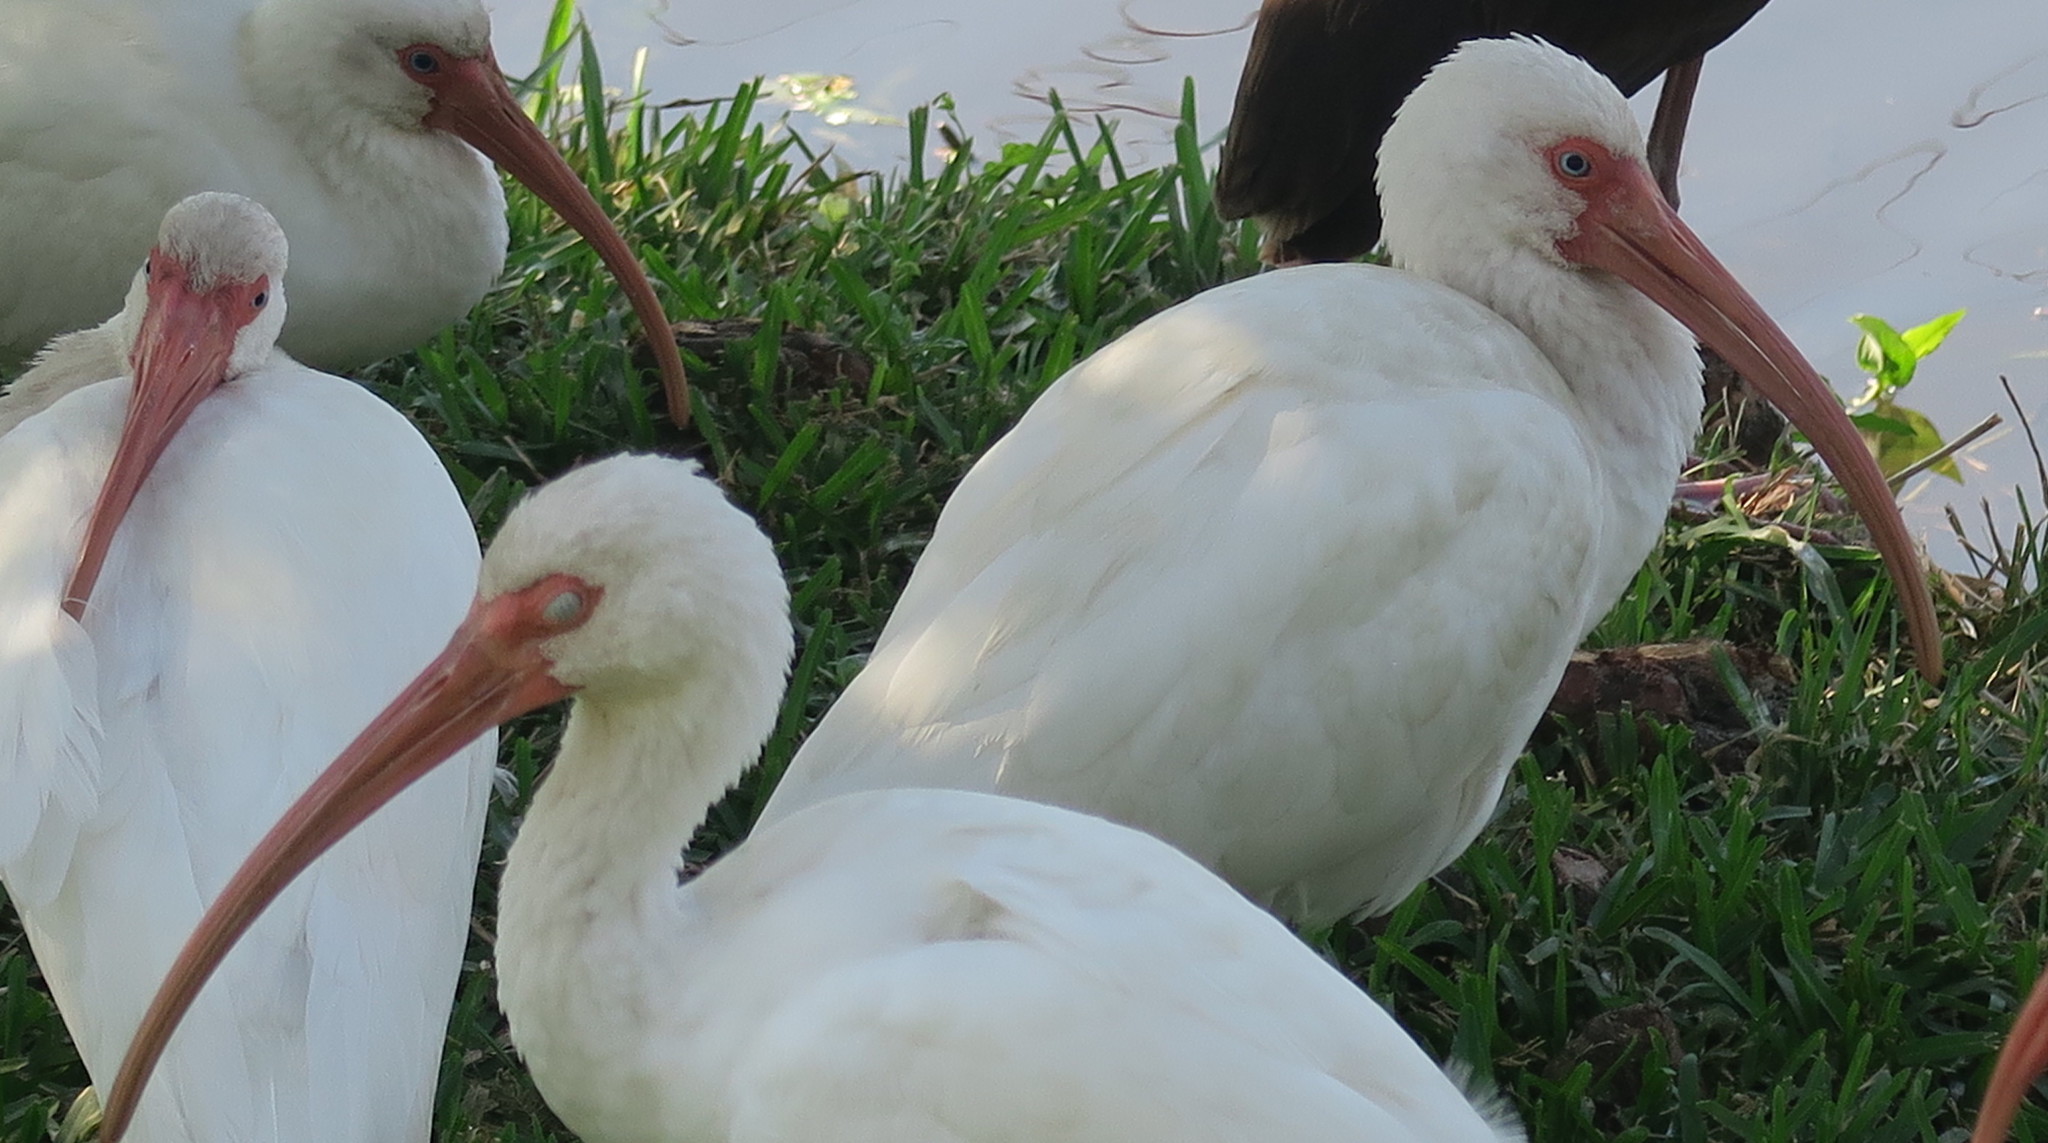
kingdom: Animalia
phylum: Chordata
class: Aves
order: Pelecaniformes
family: Threskiornithidae
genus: Eudocimus
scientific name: Eudocimus albus
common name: White ibis
